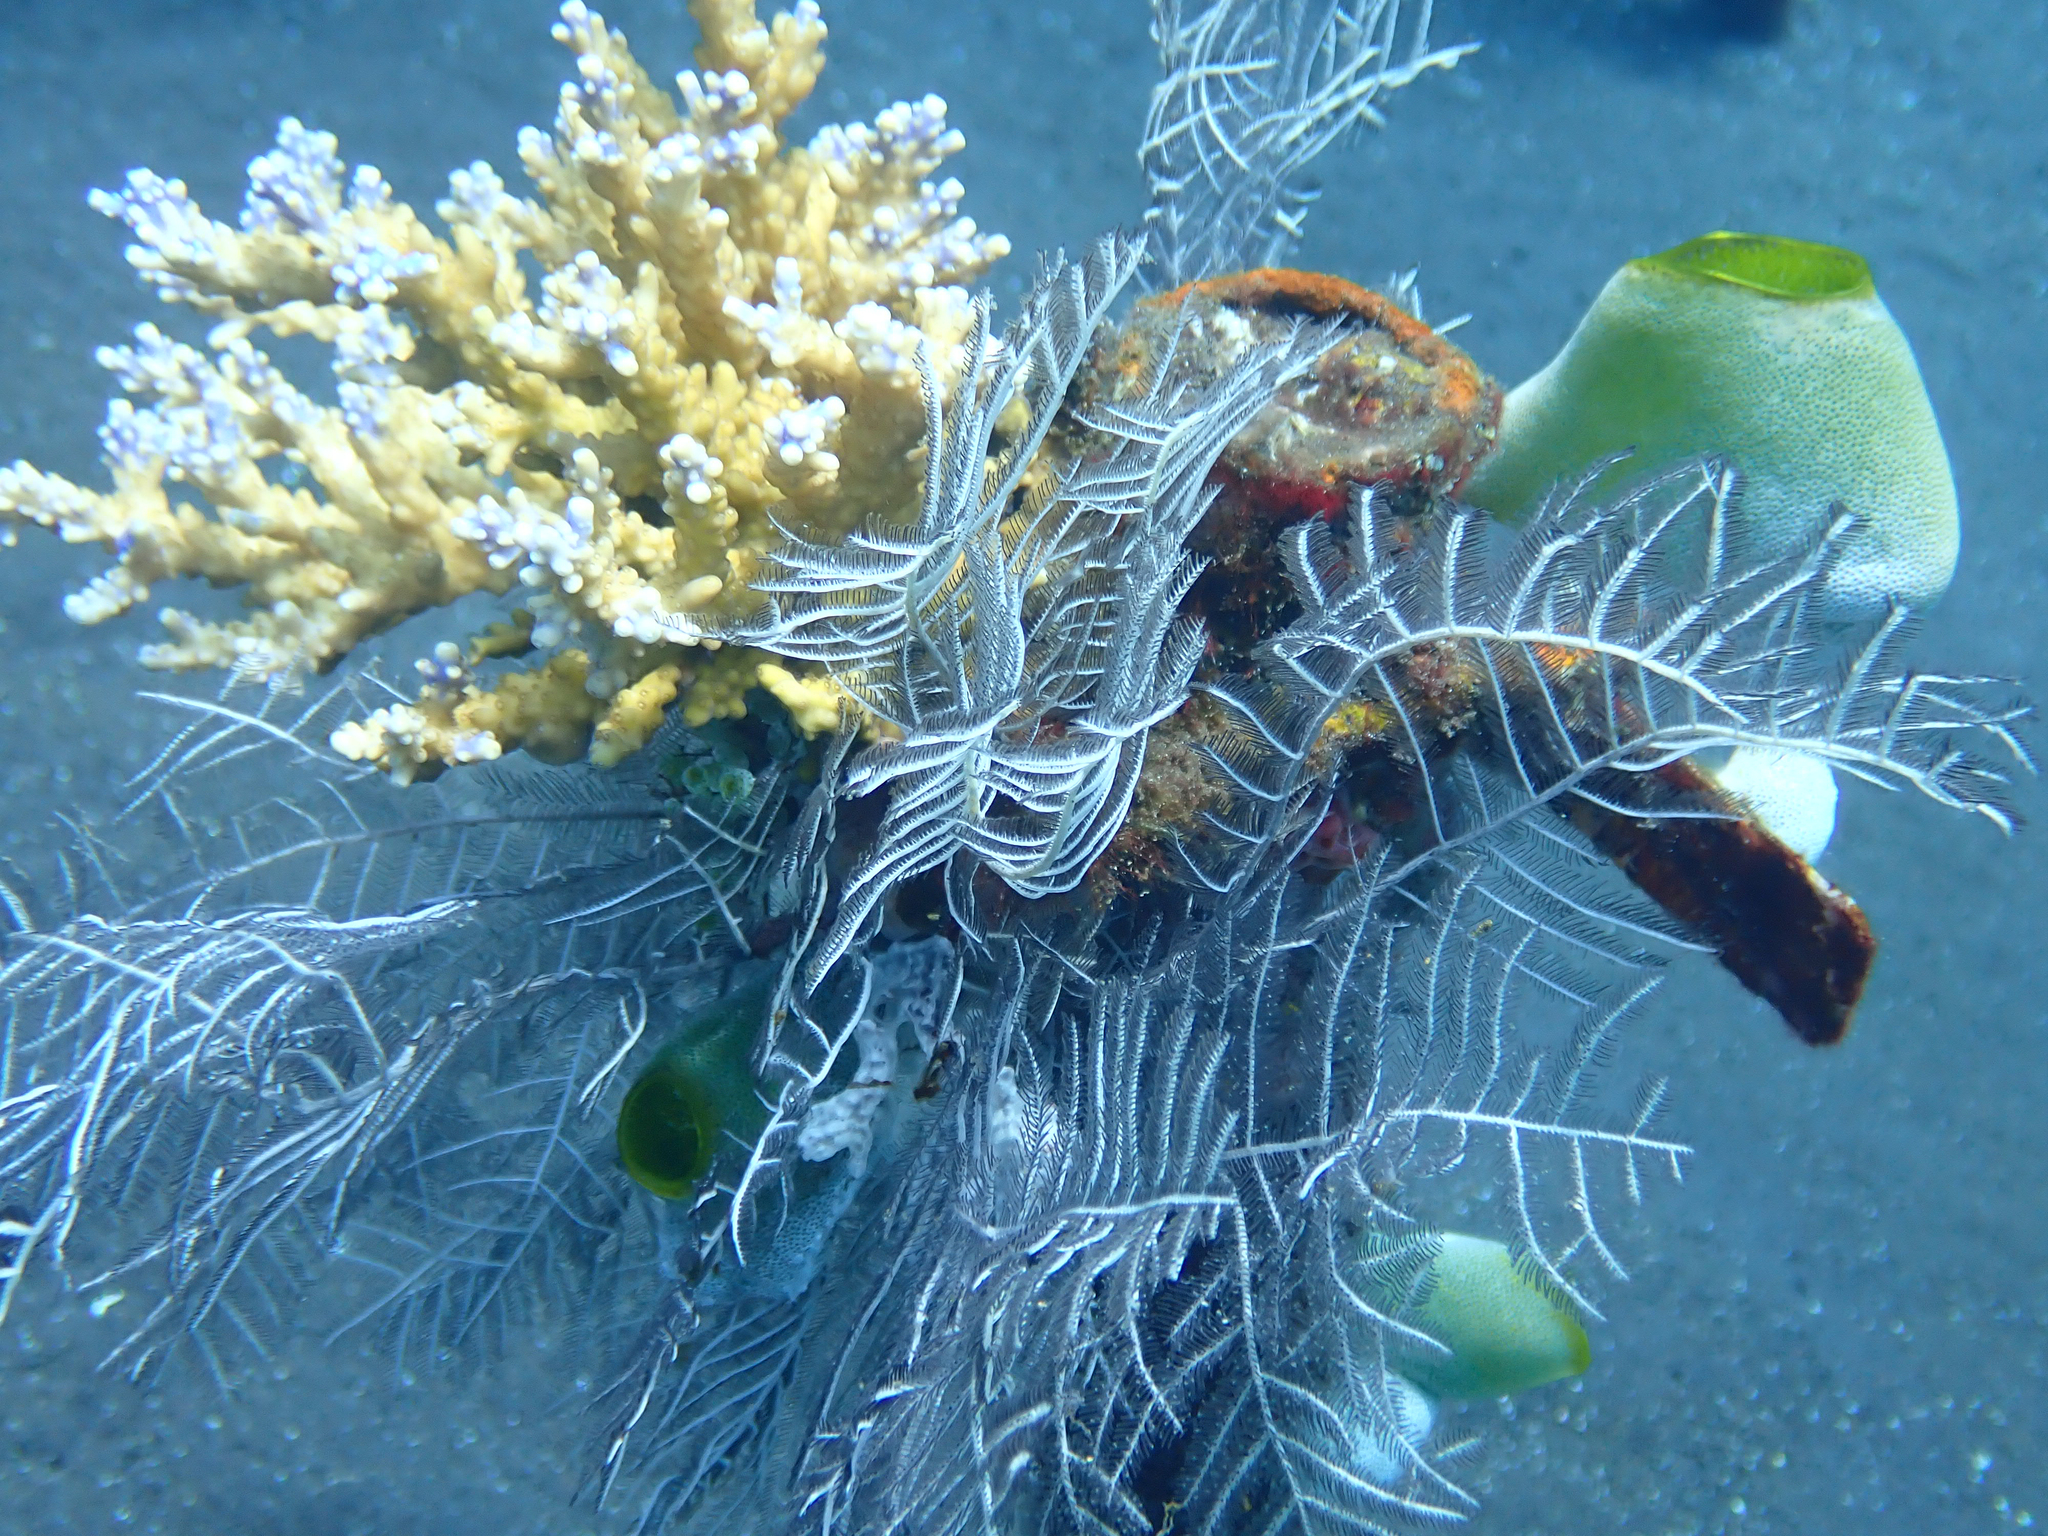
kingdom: Animalia
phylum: Chordata
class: Ascidiacea
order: Aplousobranchia
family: Didemnidae
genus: Didemnum
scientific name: Didemnum molle
